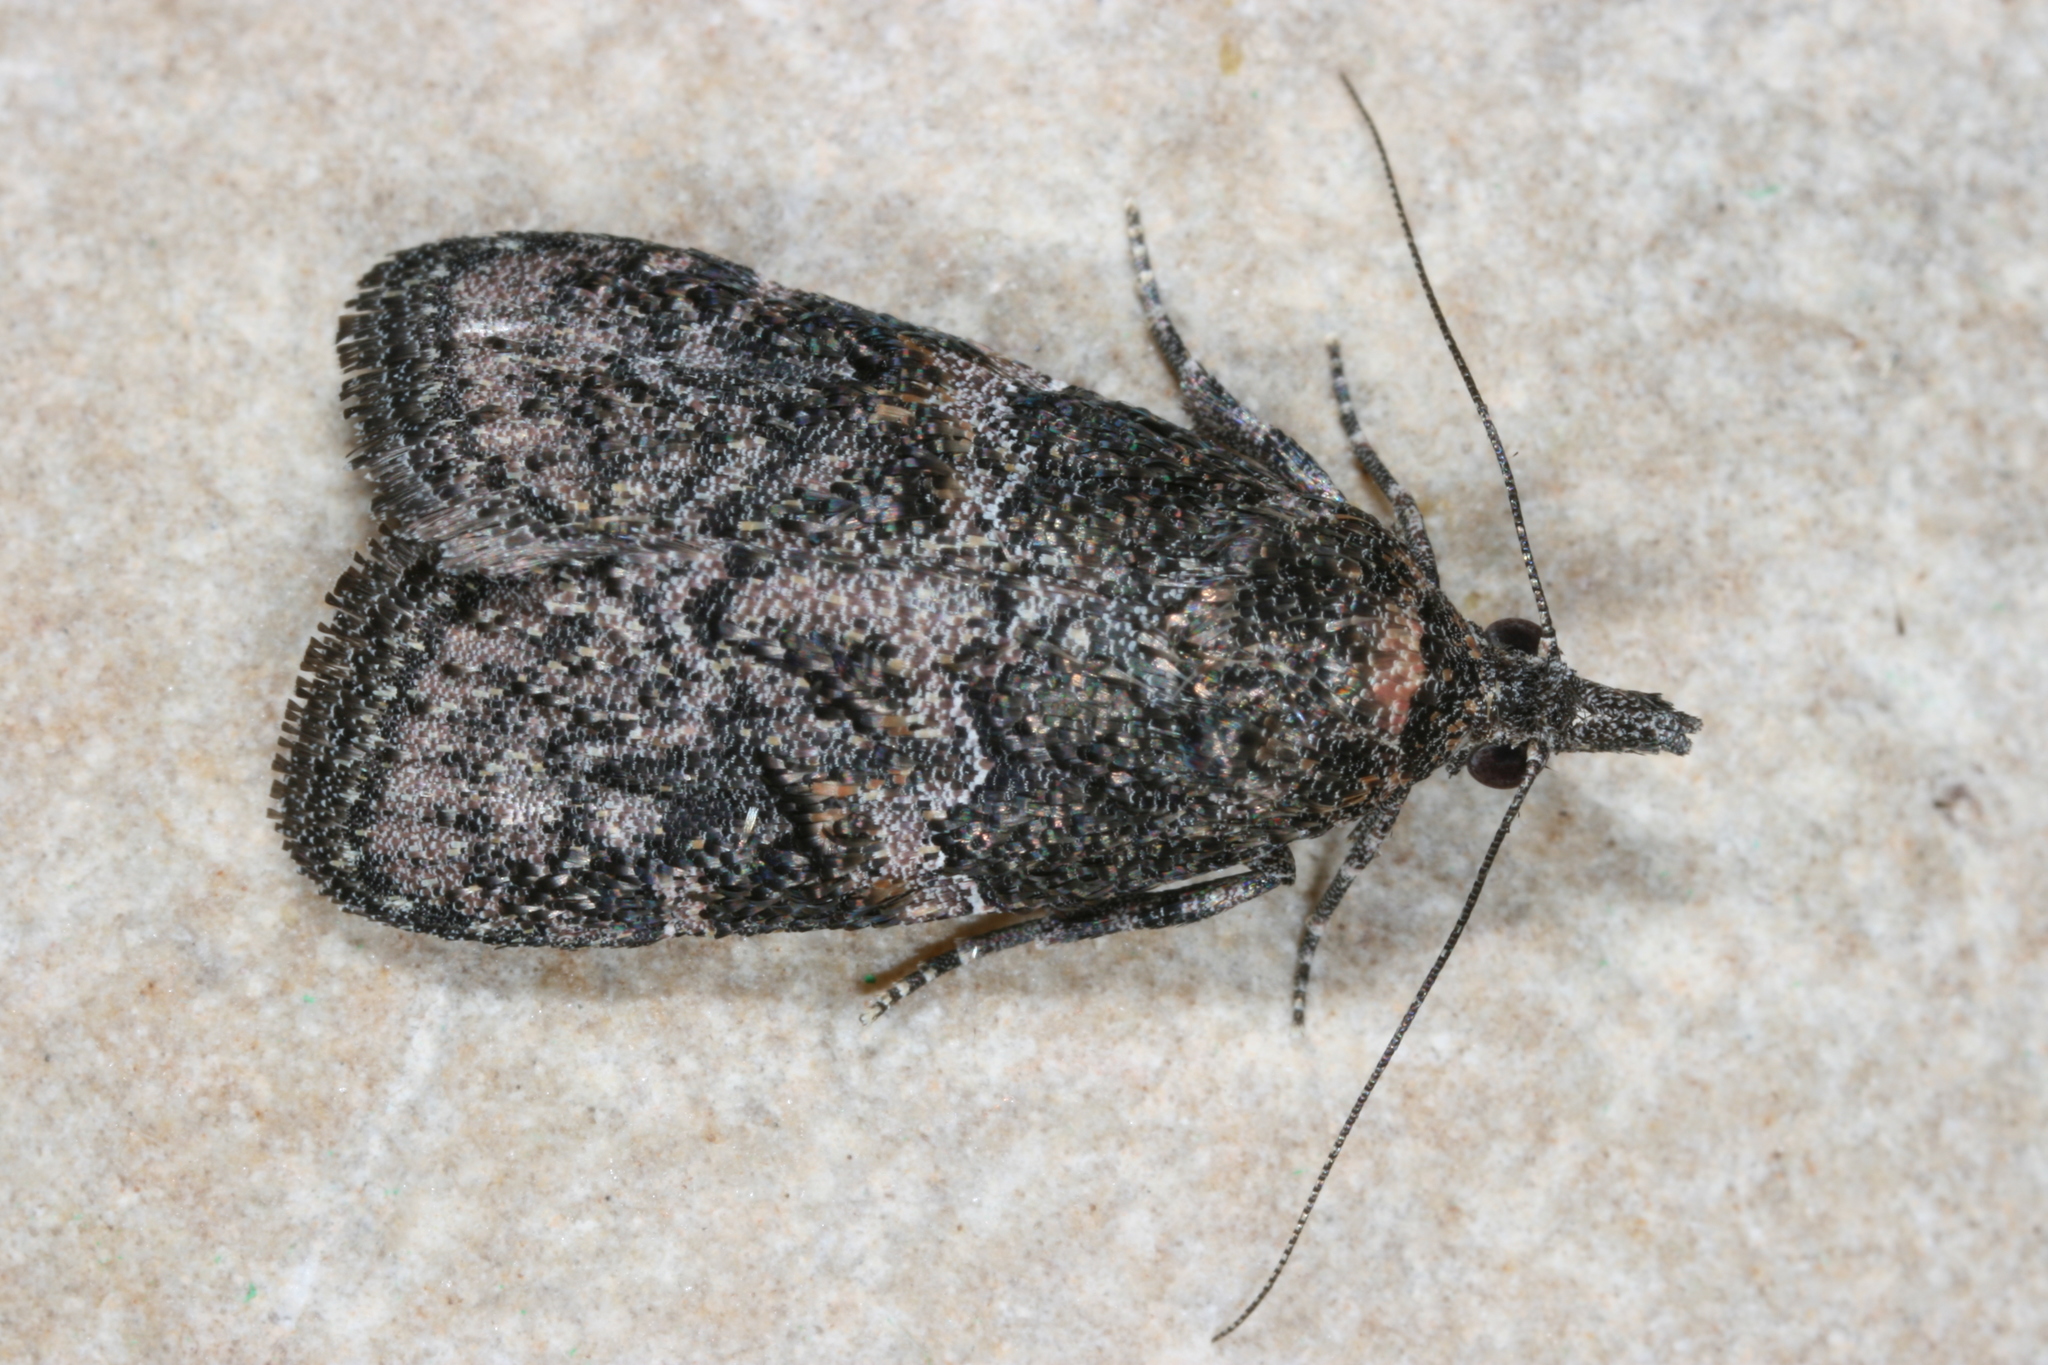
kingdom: Animalia
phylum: Arthropoda
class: Insecta
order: Lepidoptera
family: Pyralidae
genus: Satole
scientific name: Satole ligniperdalis
